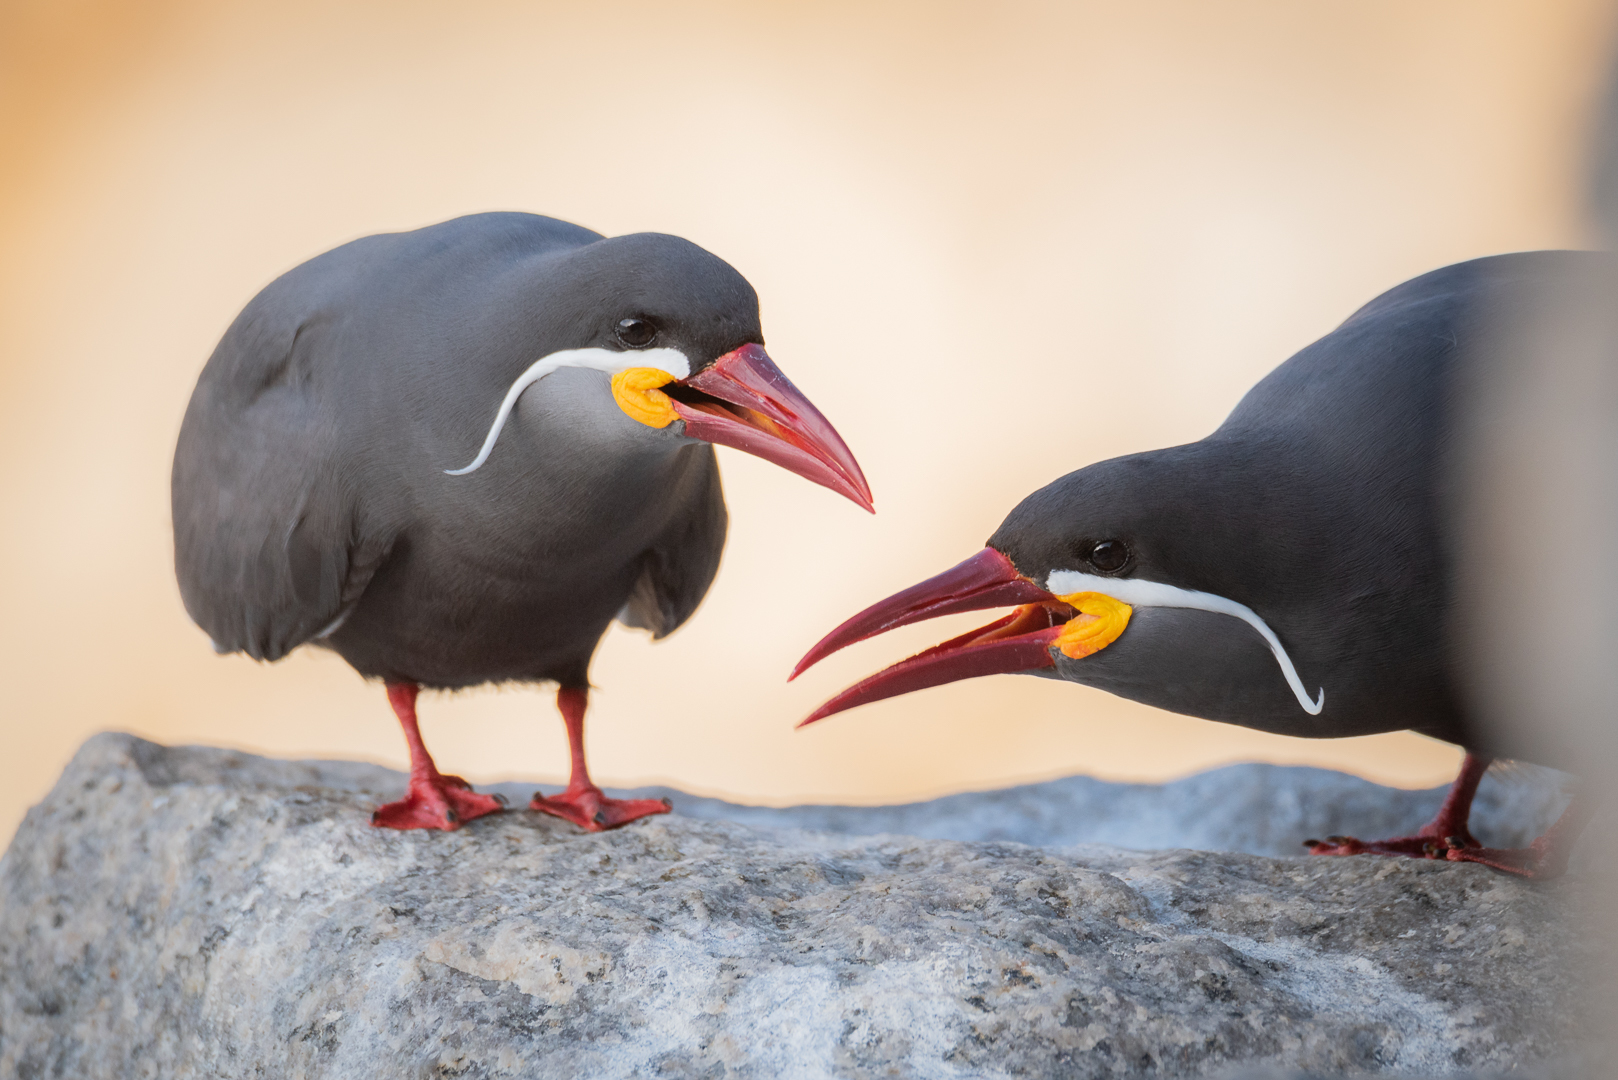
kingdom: Animalia
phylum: Chordata
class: Aves
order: Charadriiformes
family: Laridae
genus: Larosterna
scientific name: Larosterna inca
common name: Inca tern
